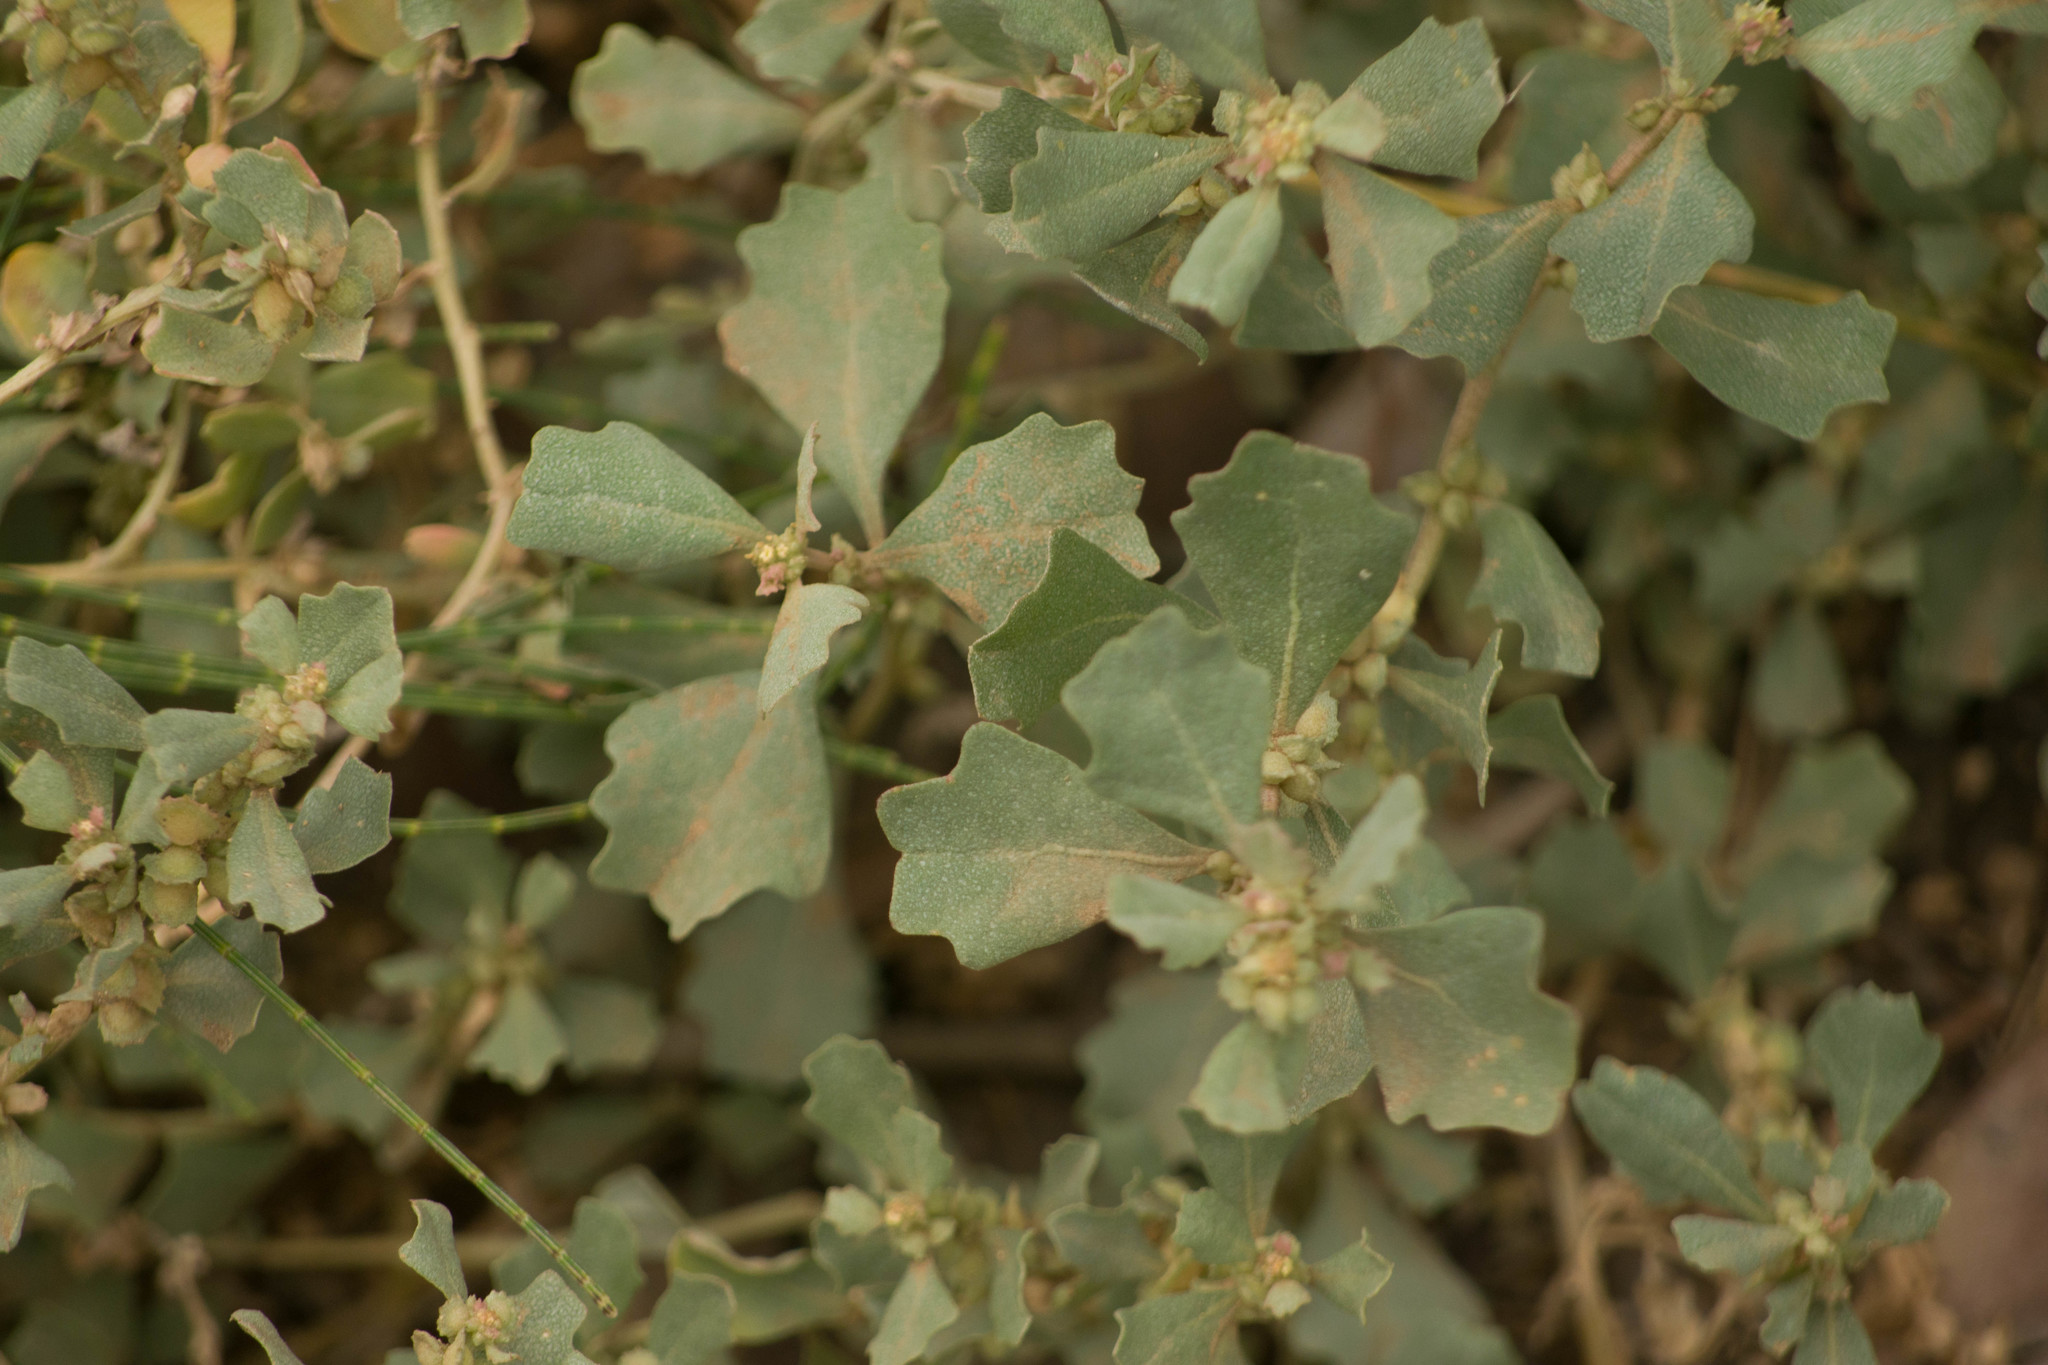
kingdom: Plantae
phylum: Tracheophyta
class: Magnoliopsida
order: Caryophyllales
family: Amaranthaceae
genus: Atriplex
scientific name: Atriplex muelleri
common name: Mueller's saltbush
